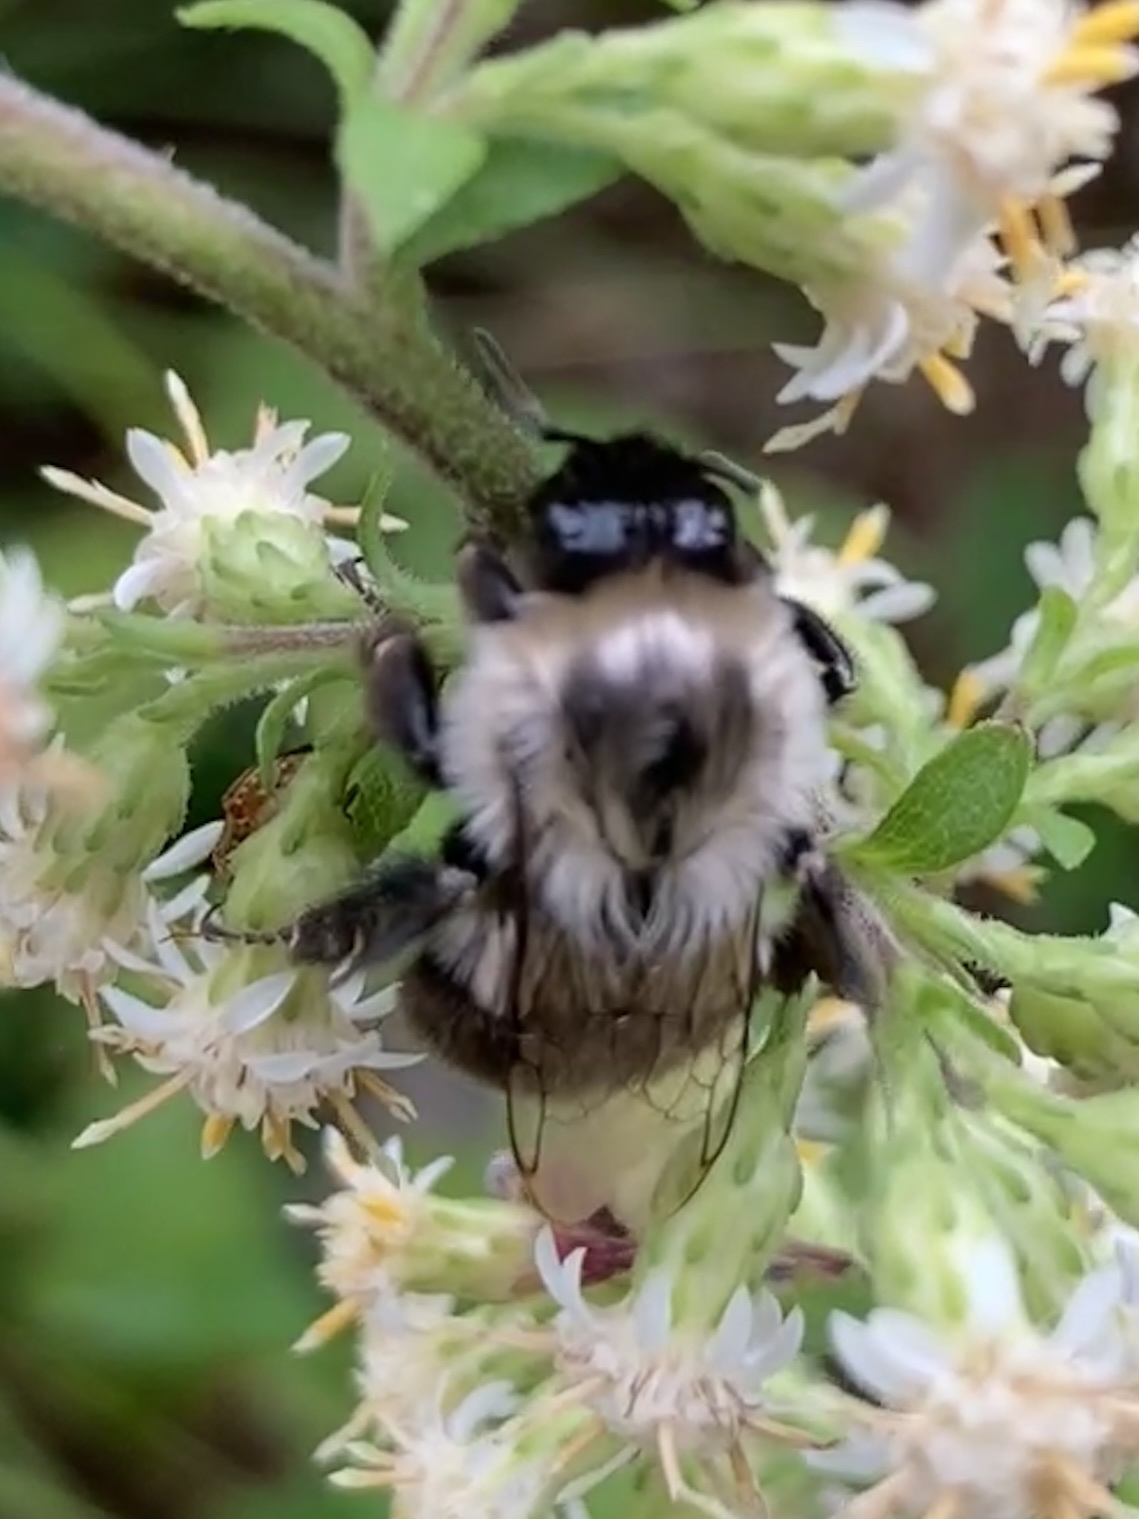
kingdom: Animalia
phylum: Arthropoda
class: Insecta
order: Hymenoptera
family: Apidae
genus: Bombus
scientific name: Bombus impatiens
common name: Common eastern bumble bee
